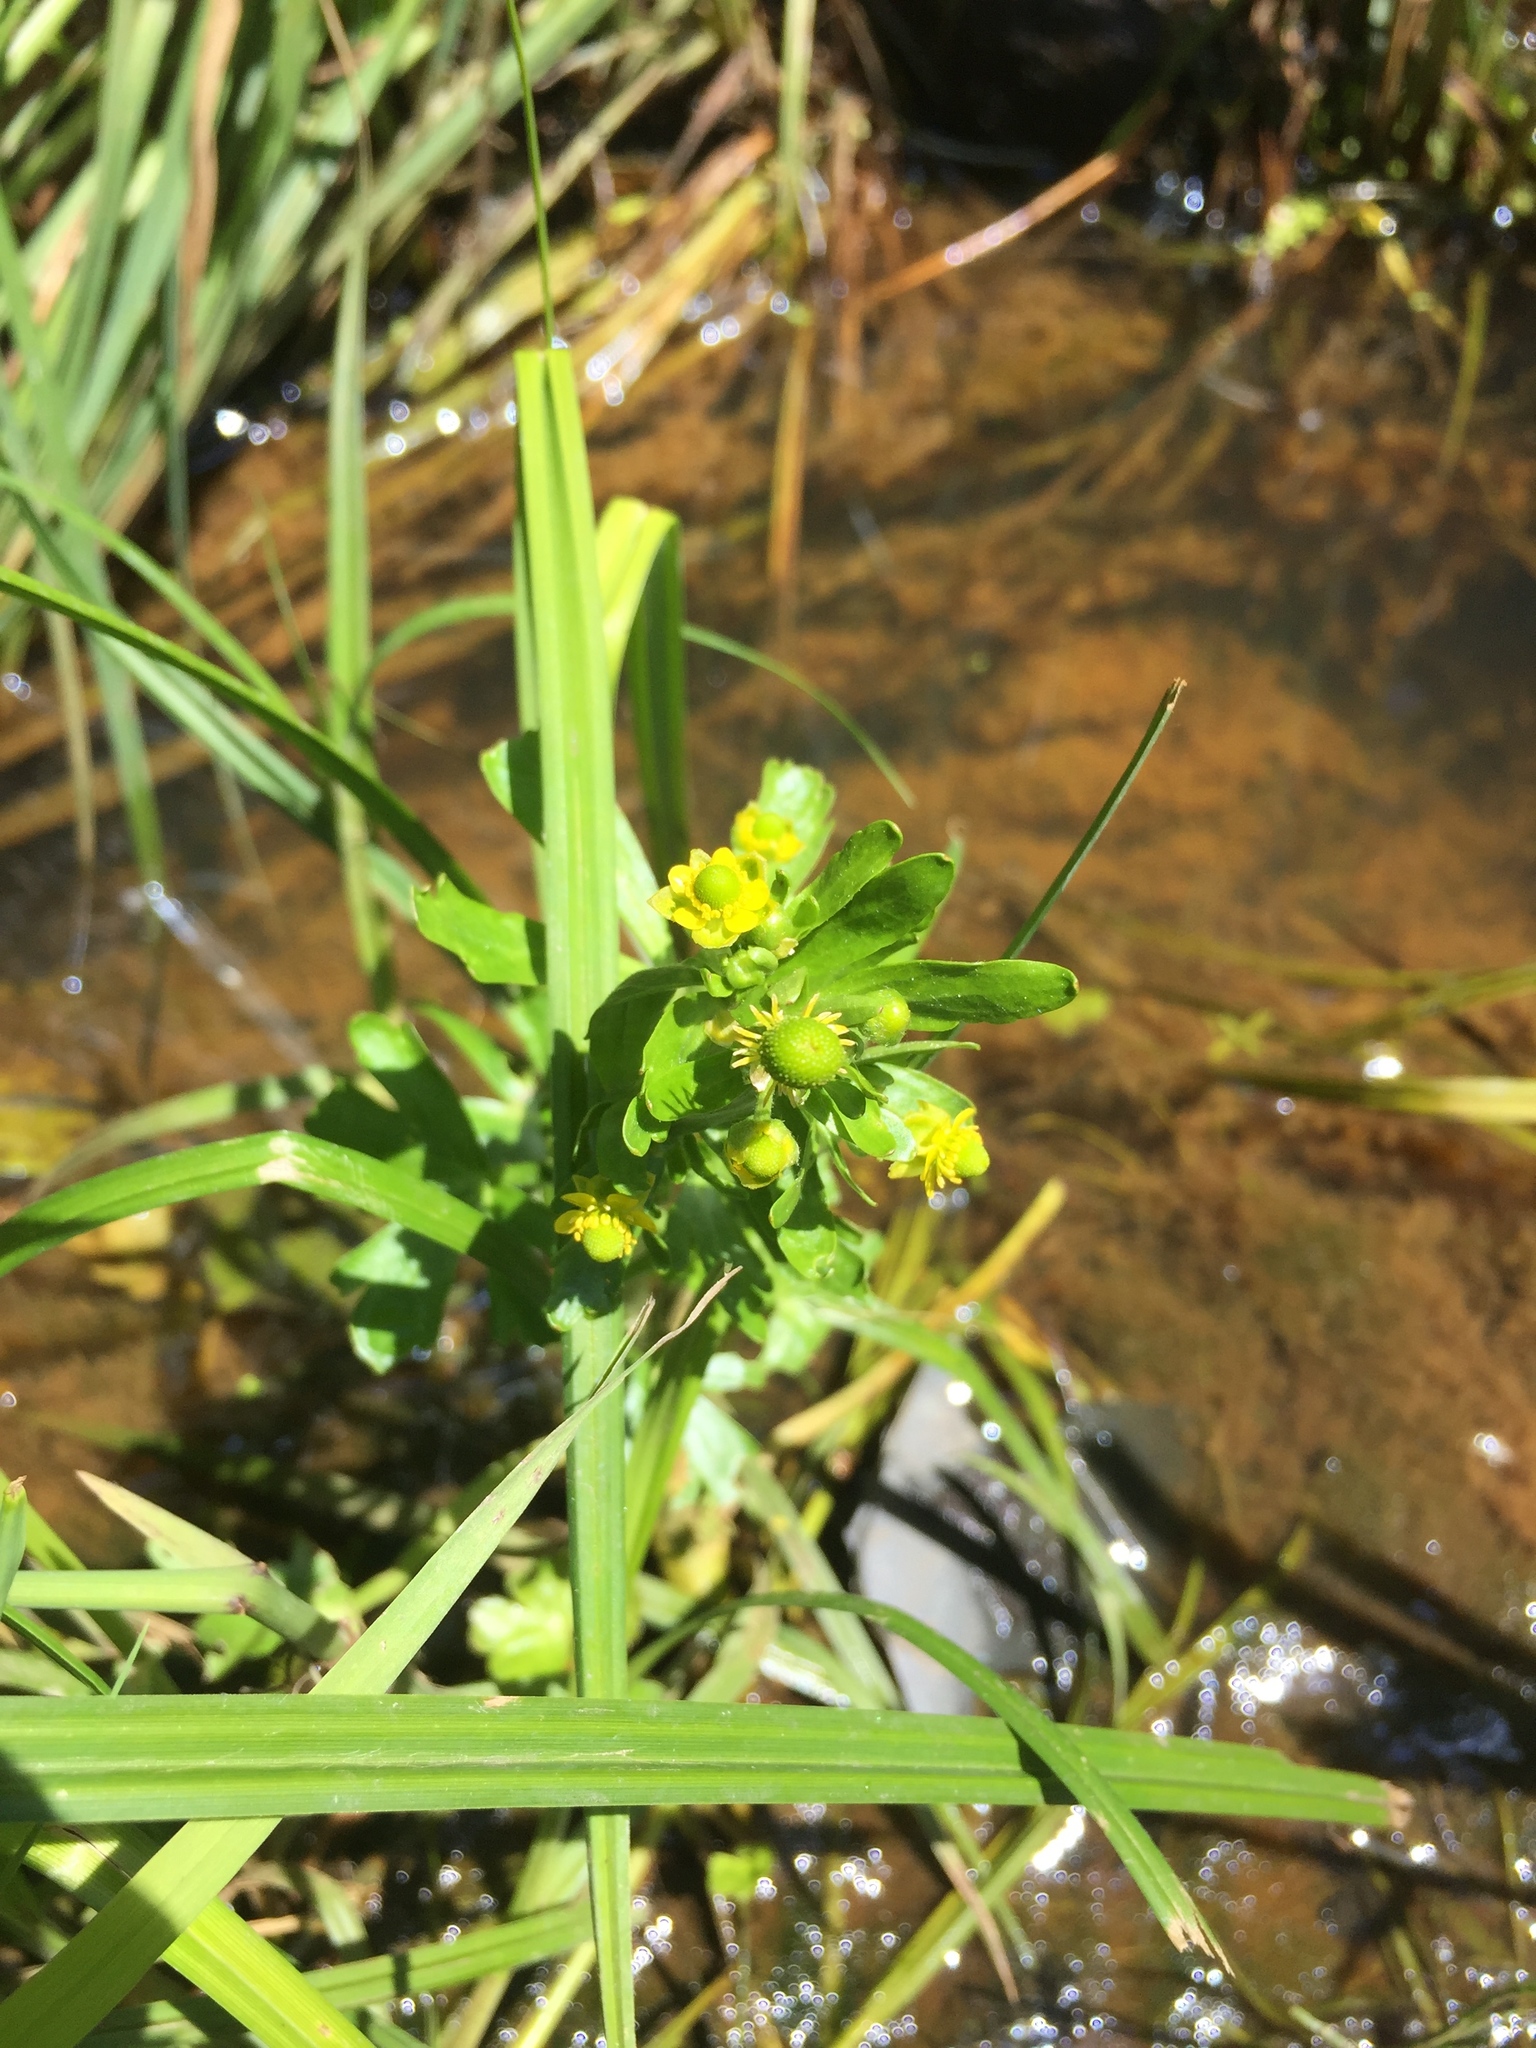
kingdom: Plantae
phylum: Tracheophyta
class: Magnoliopsida
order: Ranunculales
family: Ranunculaceae
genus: Ranunculus
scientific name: Ranunculus sceleratus
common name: Celery-leaved buttercup
